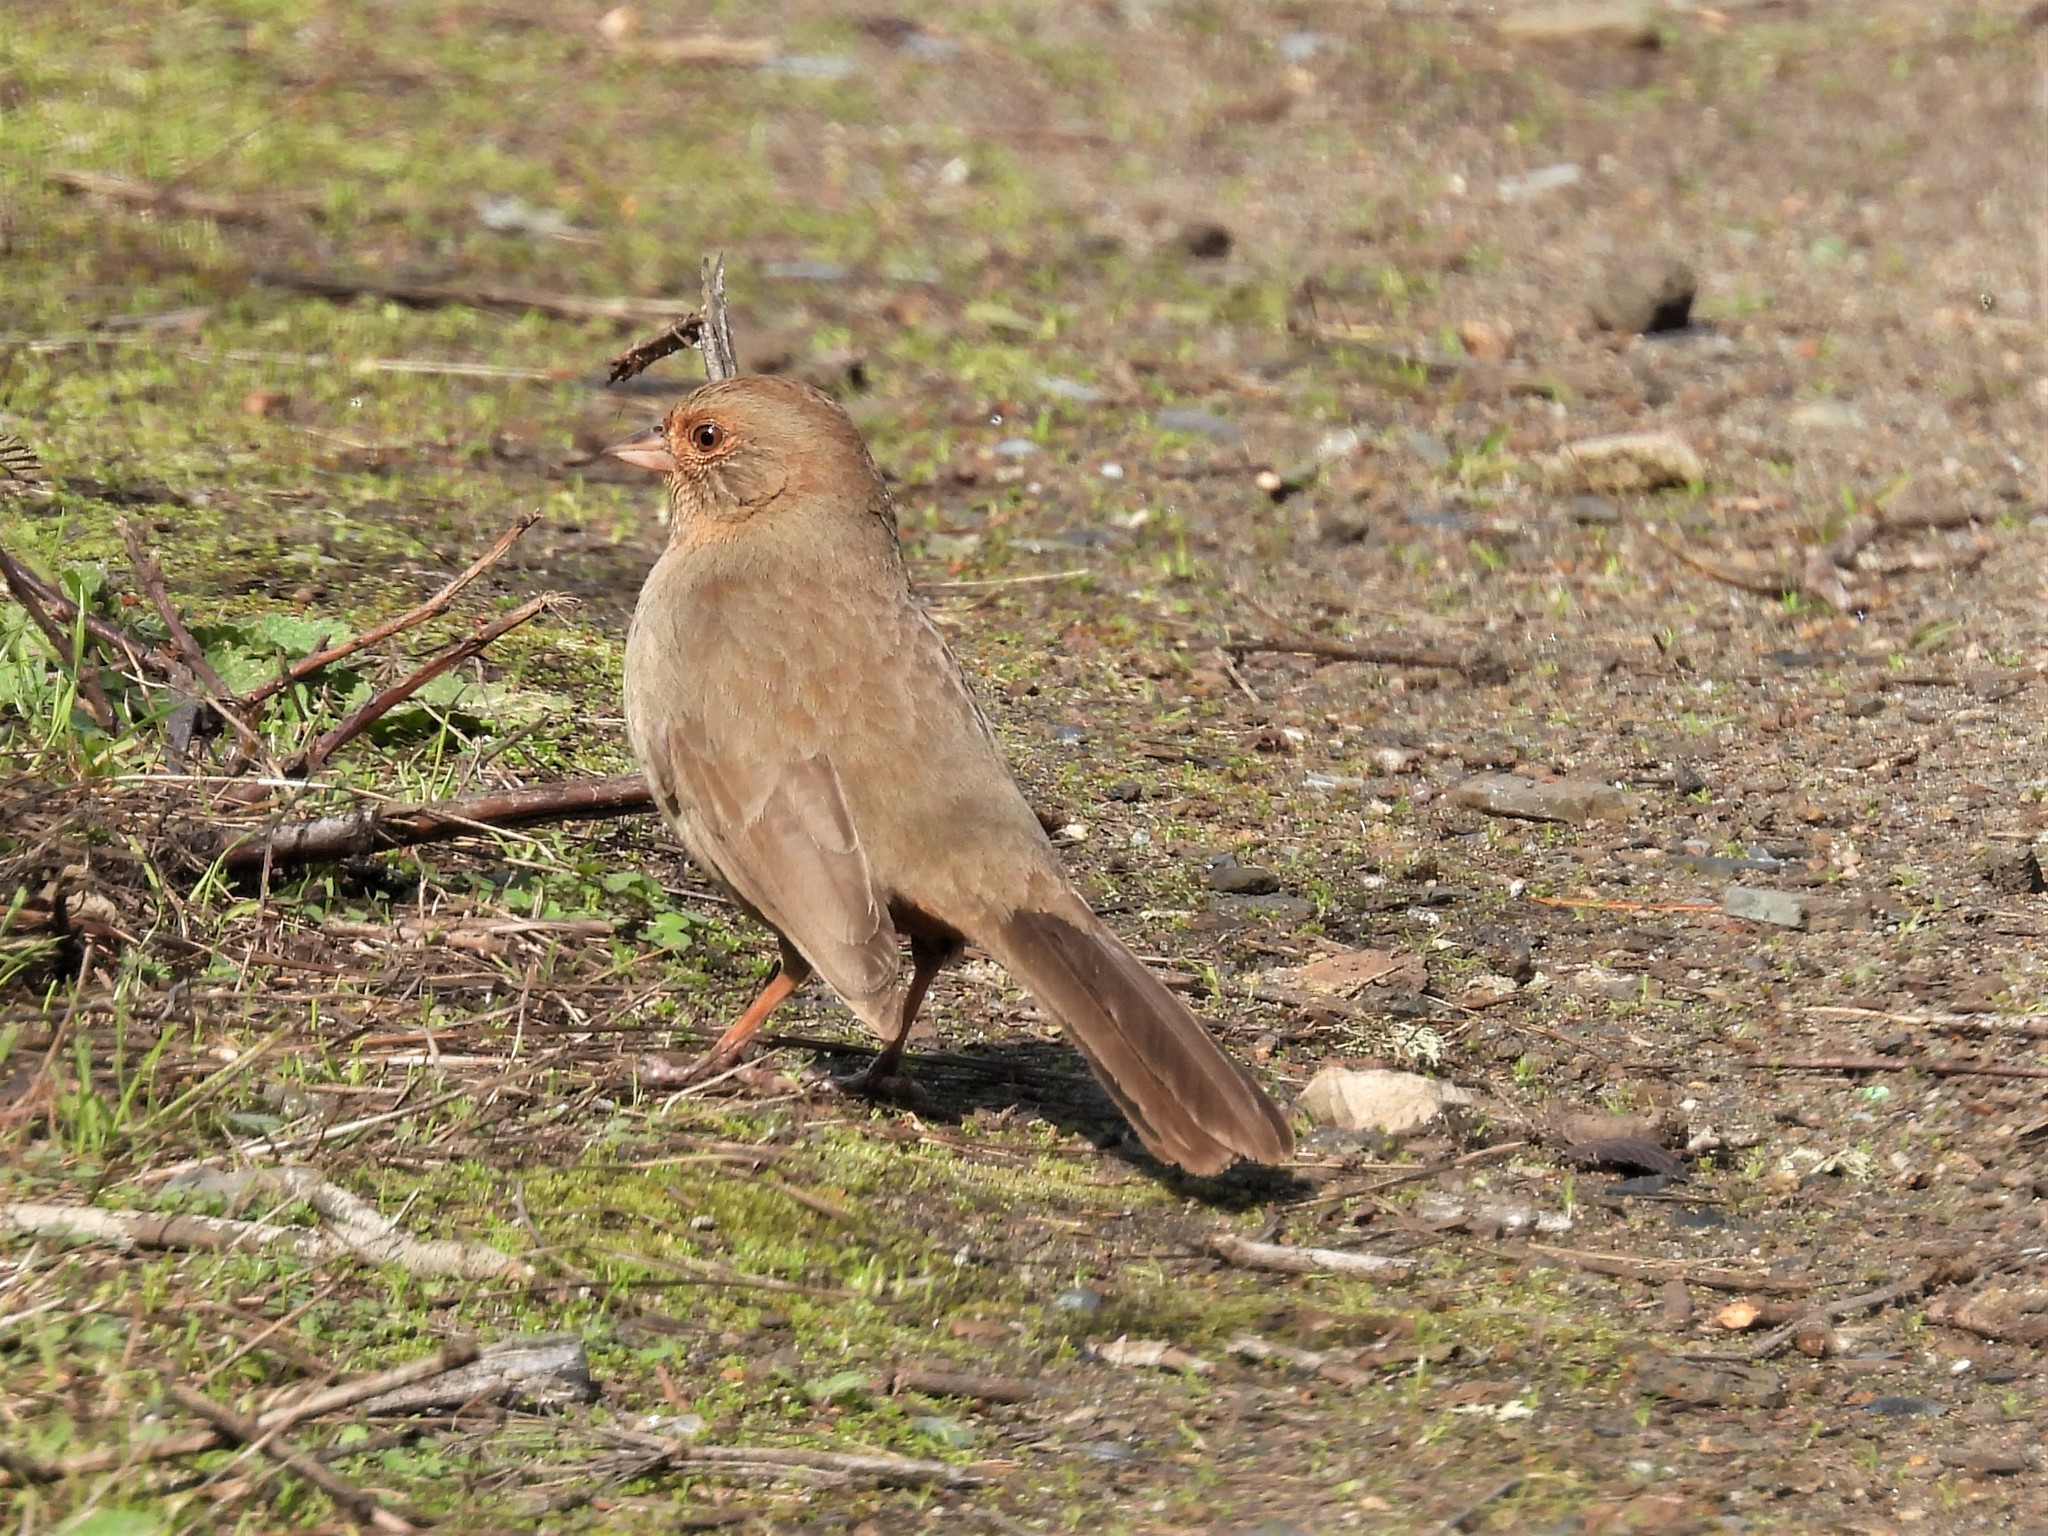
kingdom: Animalia
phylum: Chordata
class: Aves
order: Passeriformes
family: Passerellidae
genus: Melozone
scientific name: Melozone crissalis
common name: California towhee
